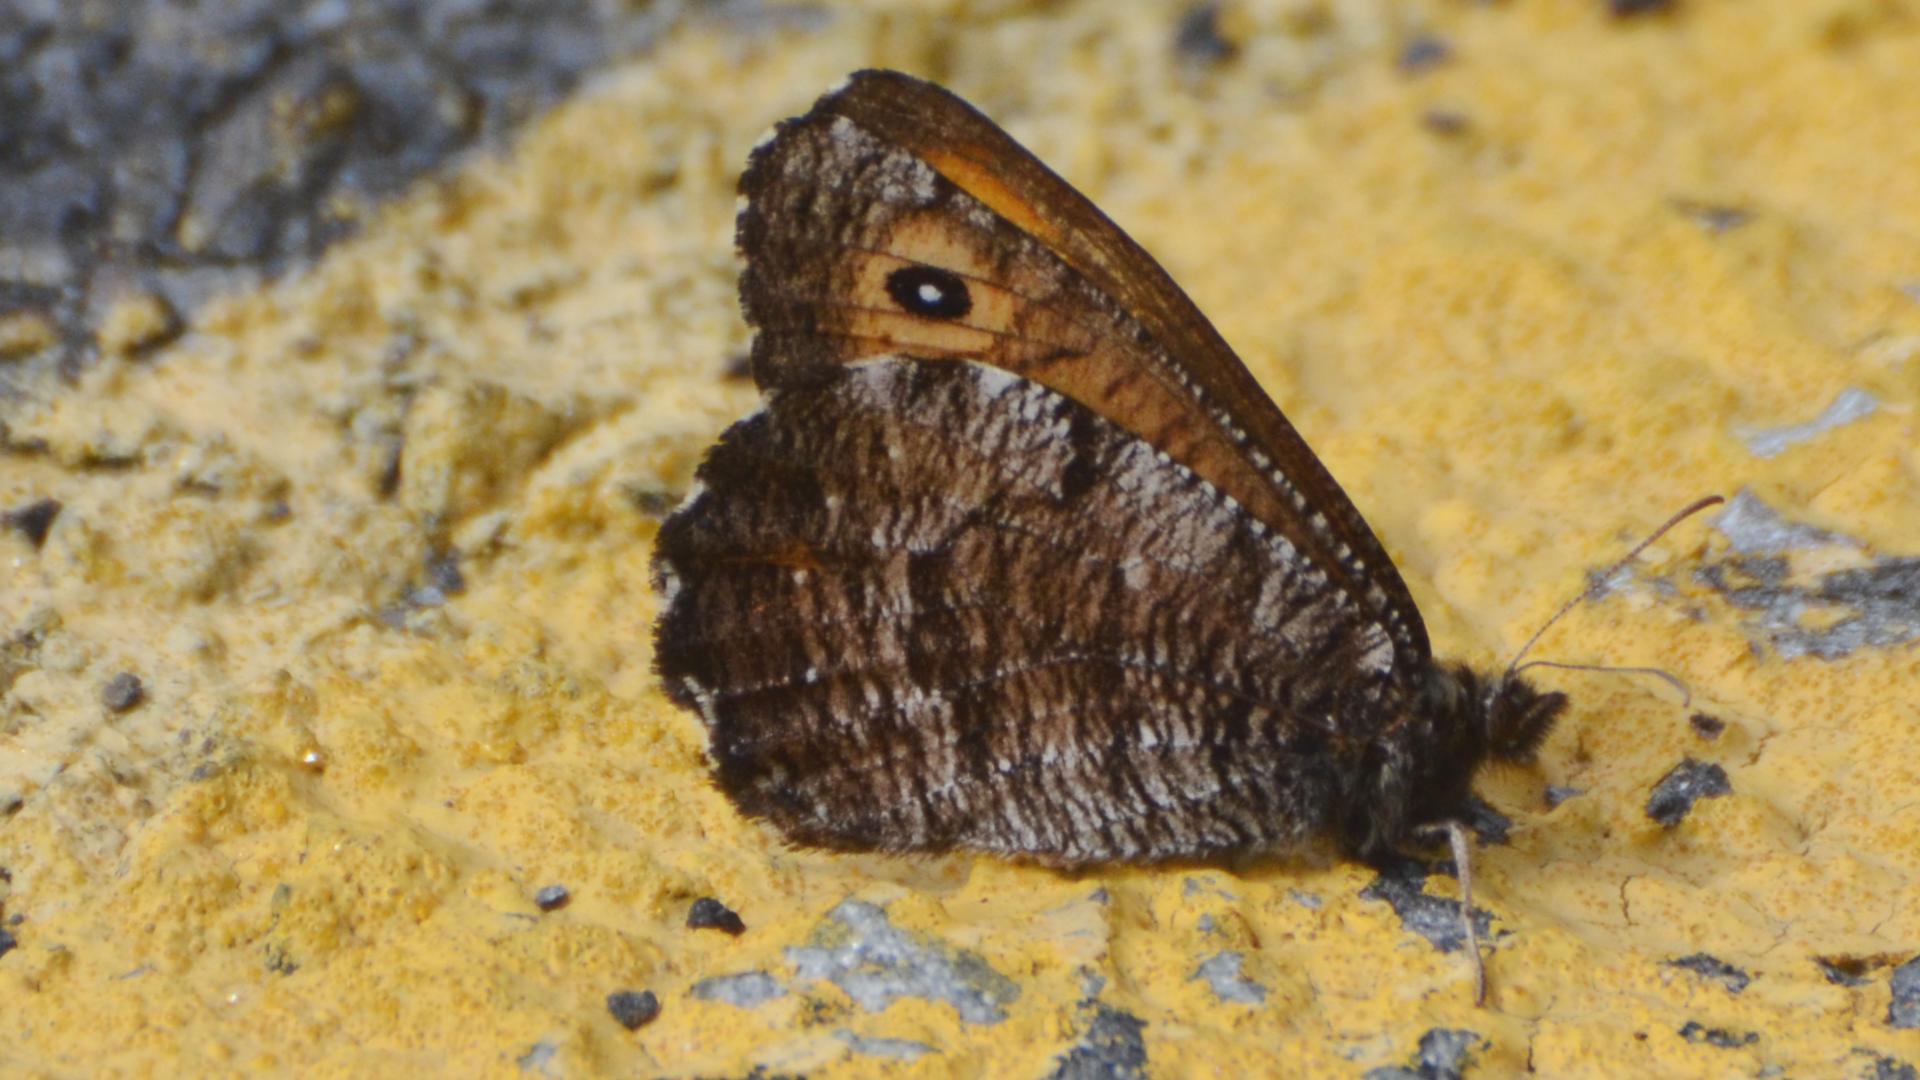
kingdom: Animalia
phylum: Arthropoda
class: Insecta
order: Lepidoptera
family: Nymphalidae
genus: Oeneis
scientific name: Oeneis nevadensis
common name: Great arctic
